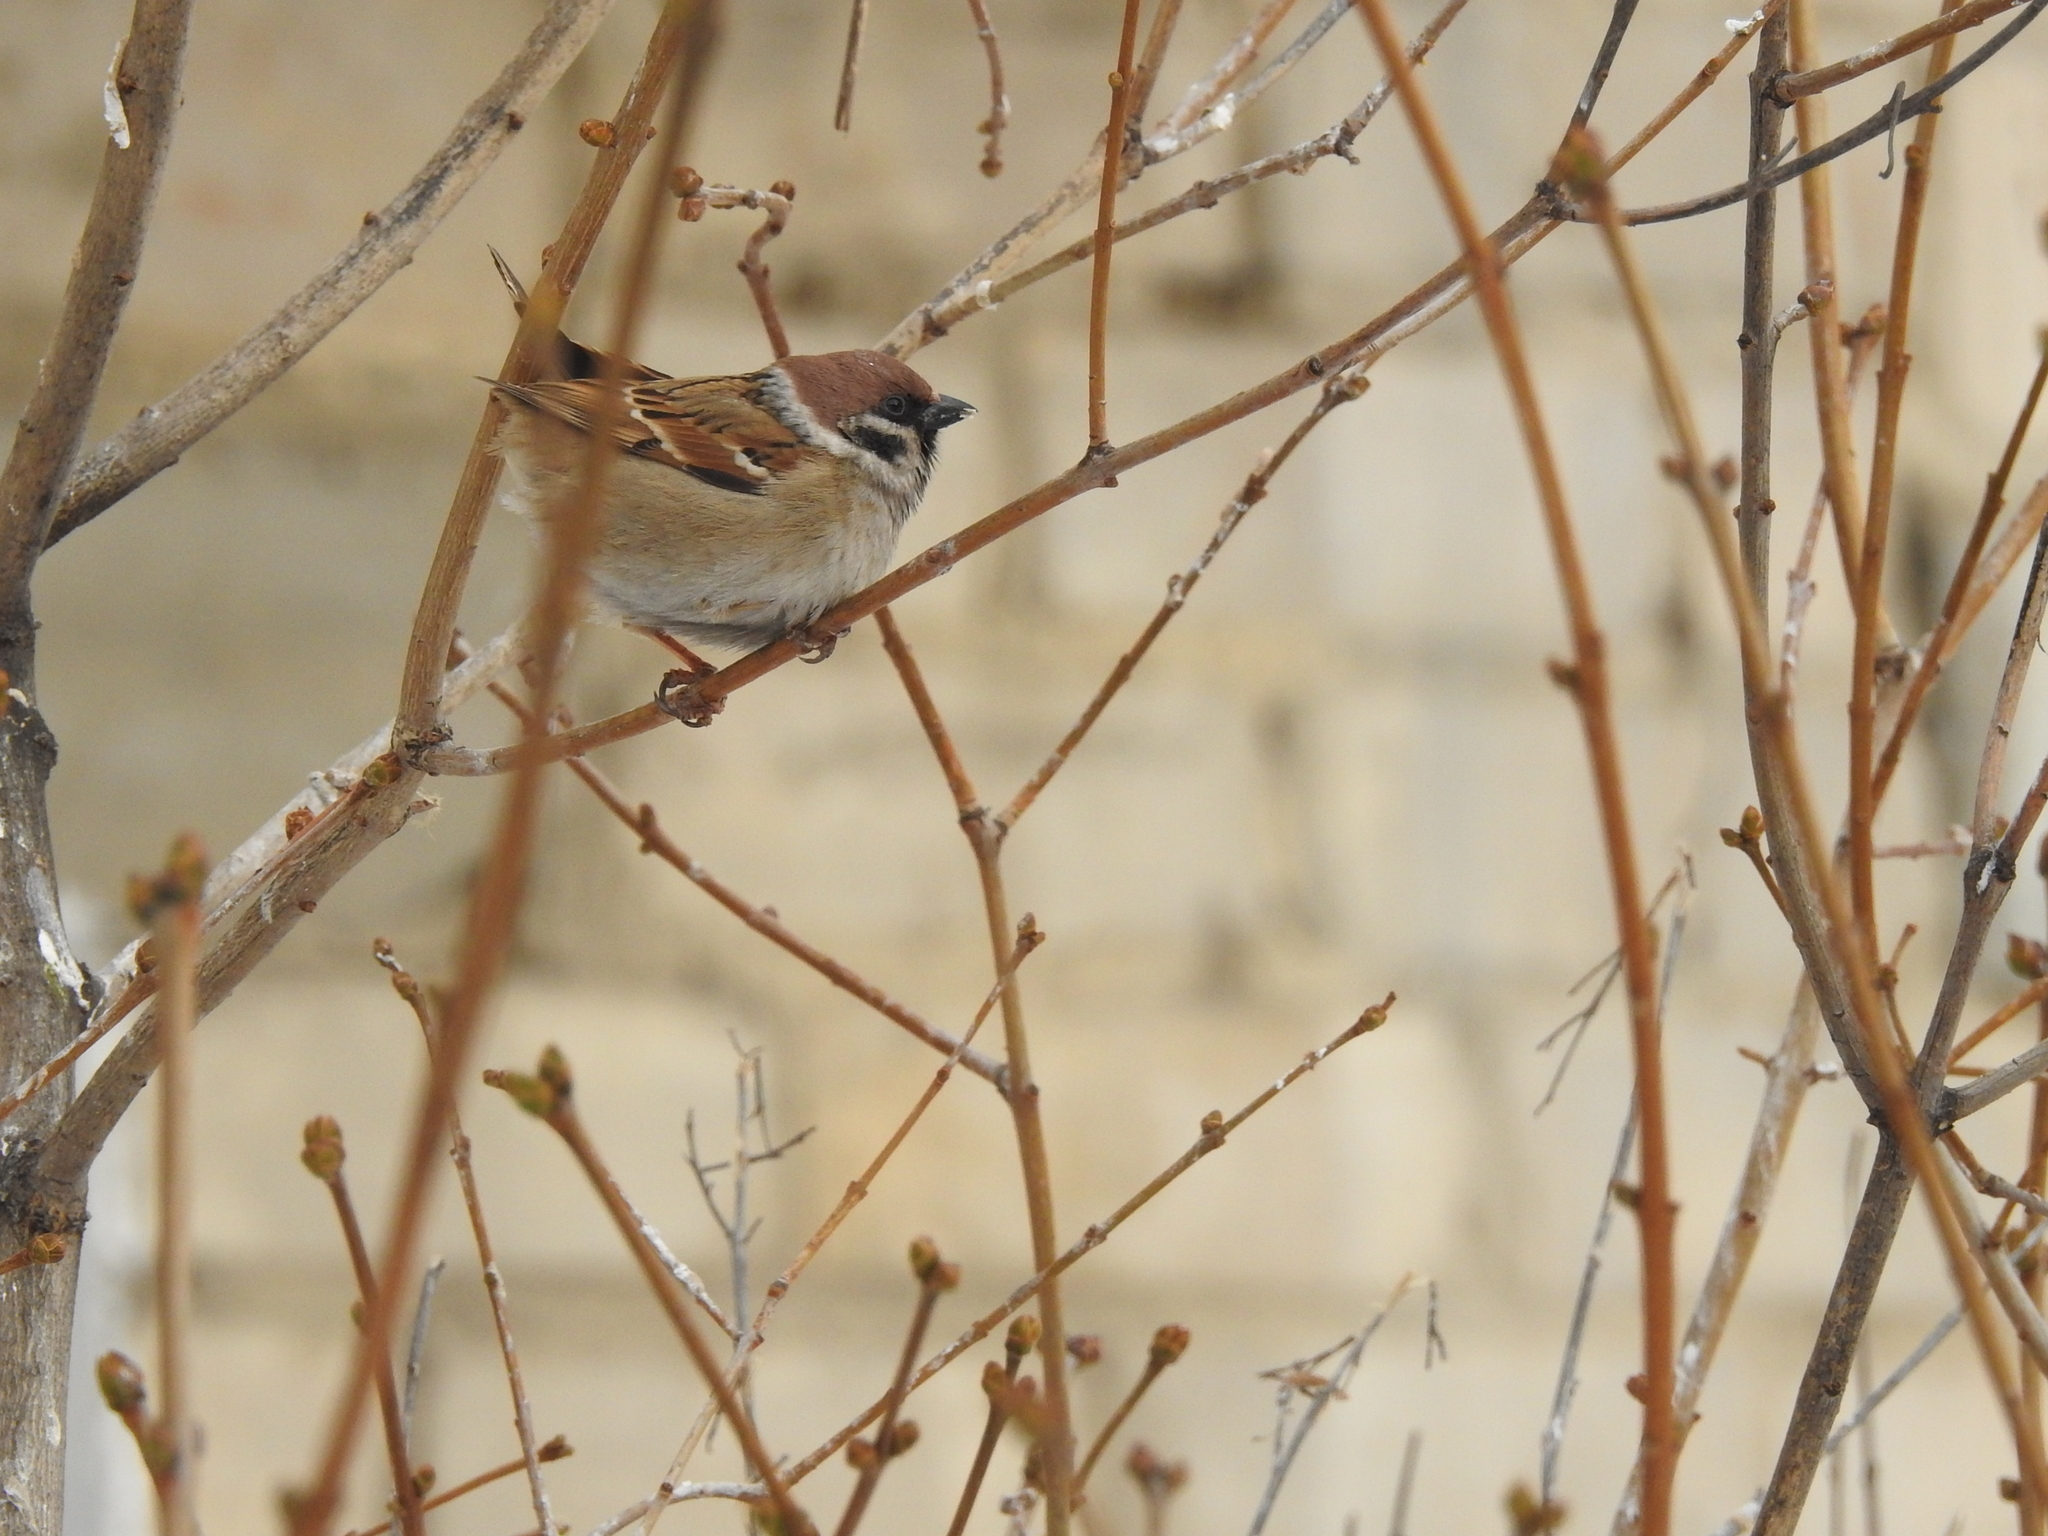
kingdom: Animalia
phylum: Chordata
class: Aves
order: Passeriformes
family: Passeridae
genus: Passer
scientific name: Passer montanus
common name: Eurasian tree sparrow
